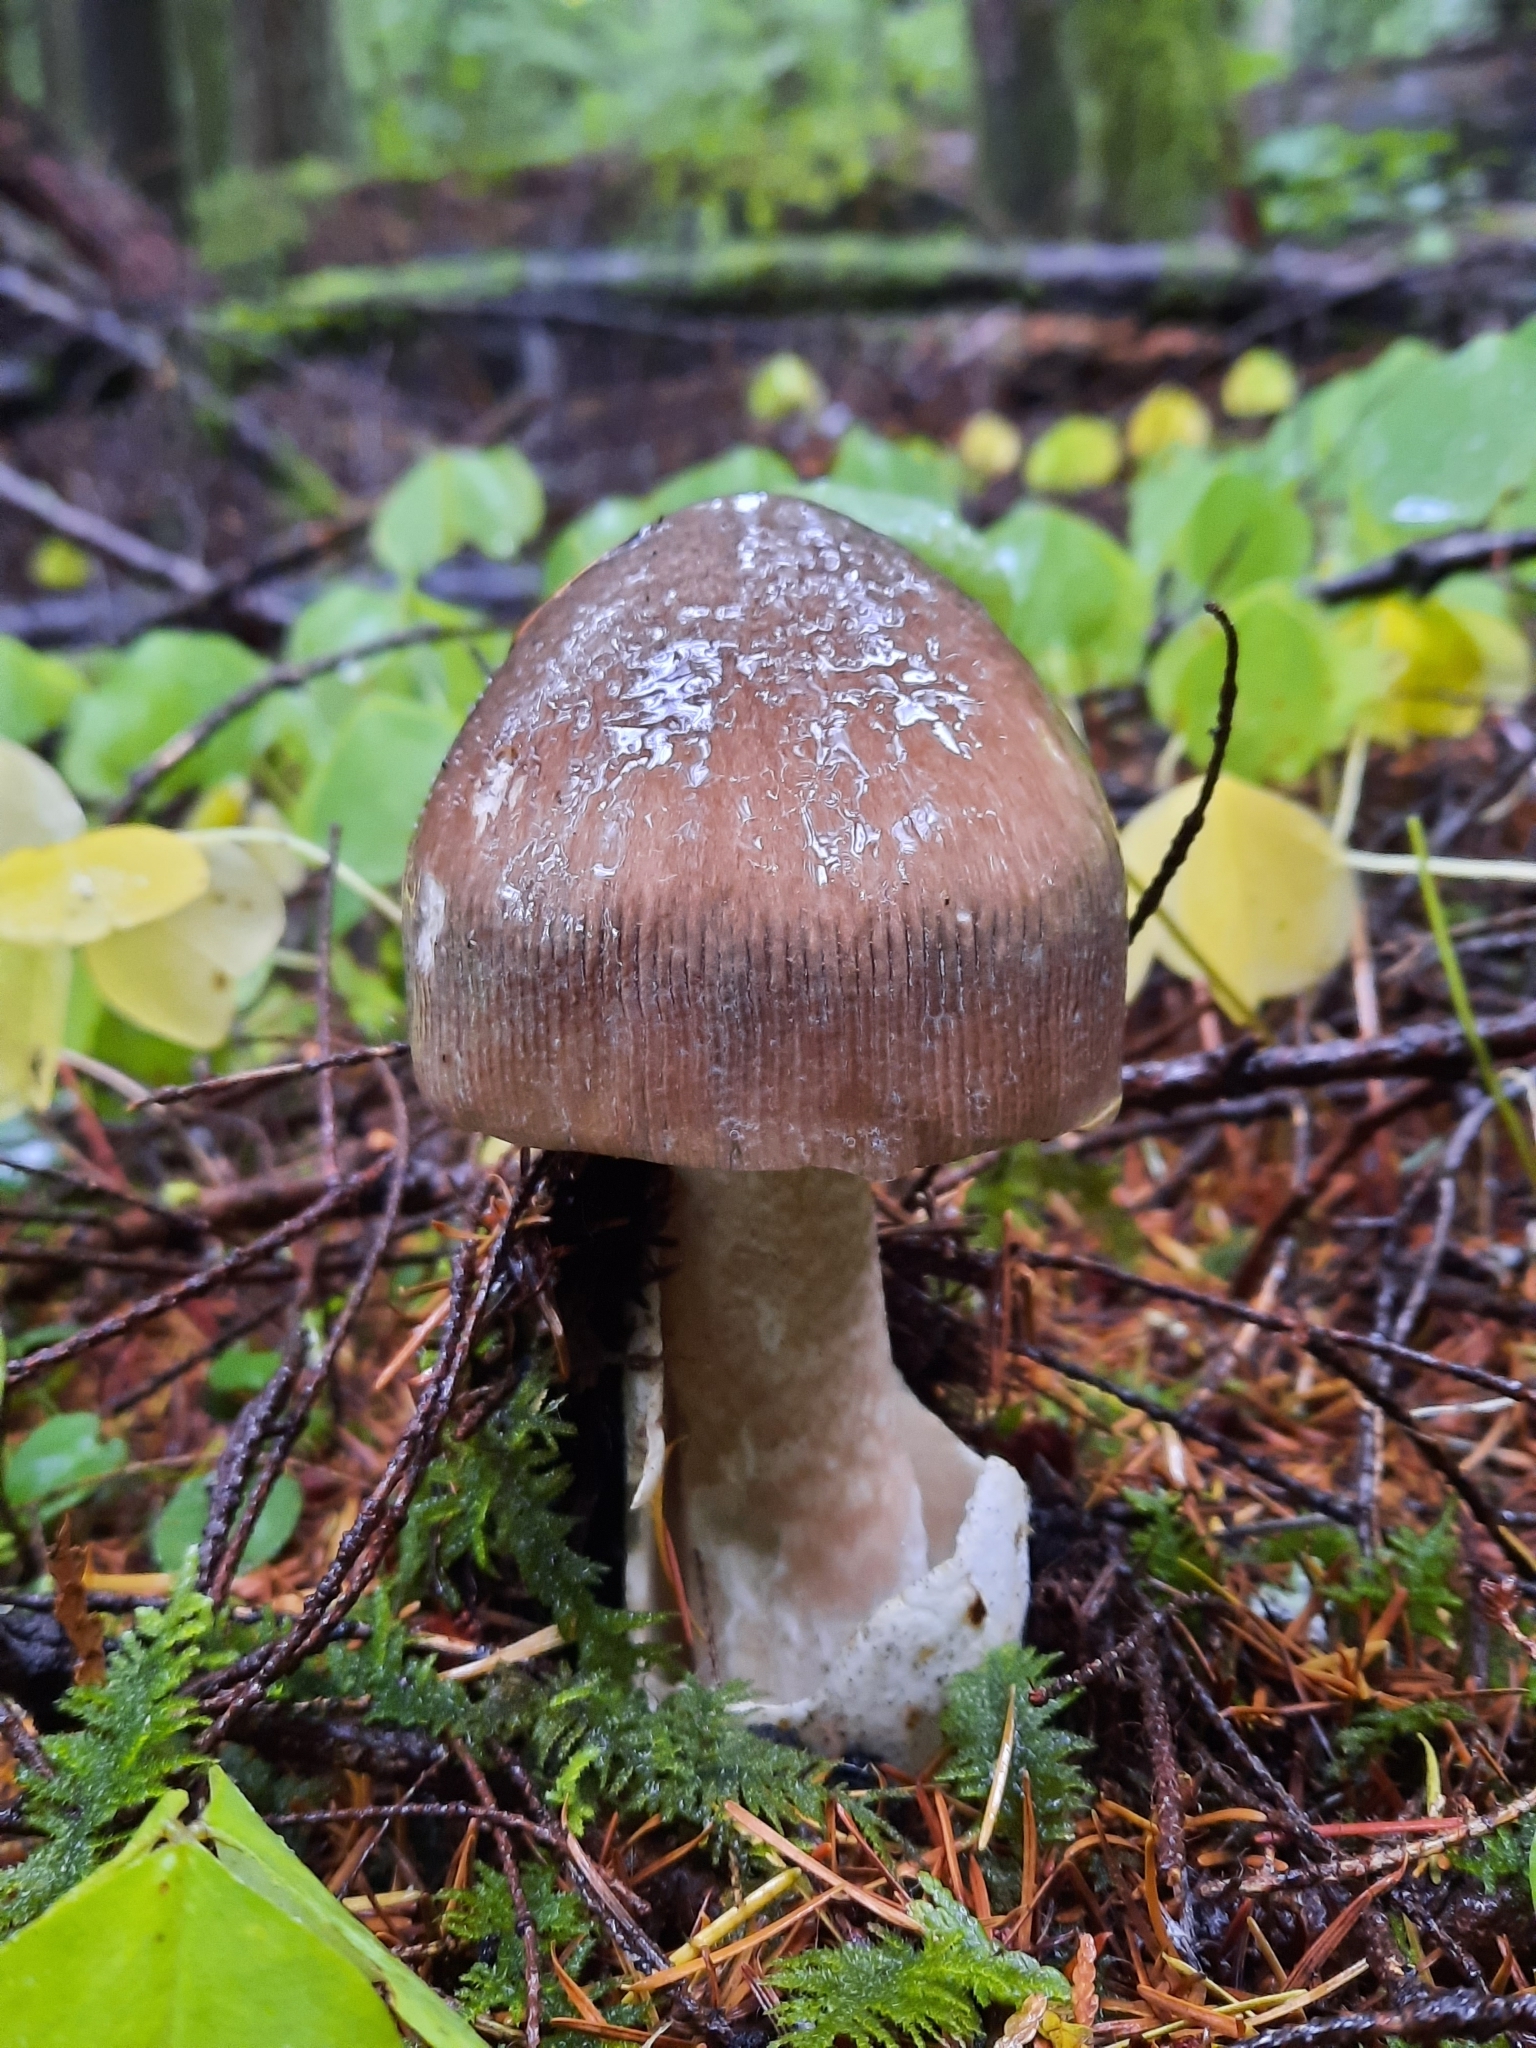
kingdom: Fungi
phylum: Basidiomycota
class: Agaricomycetes
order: Agaricales
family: Amanitaceae
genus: Amanita
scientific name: Amanita pachycolea
